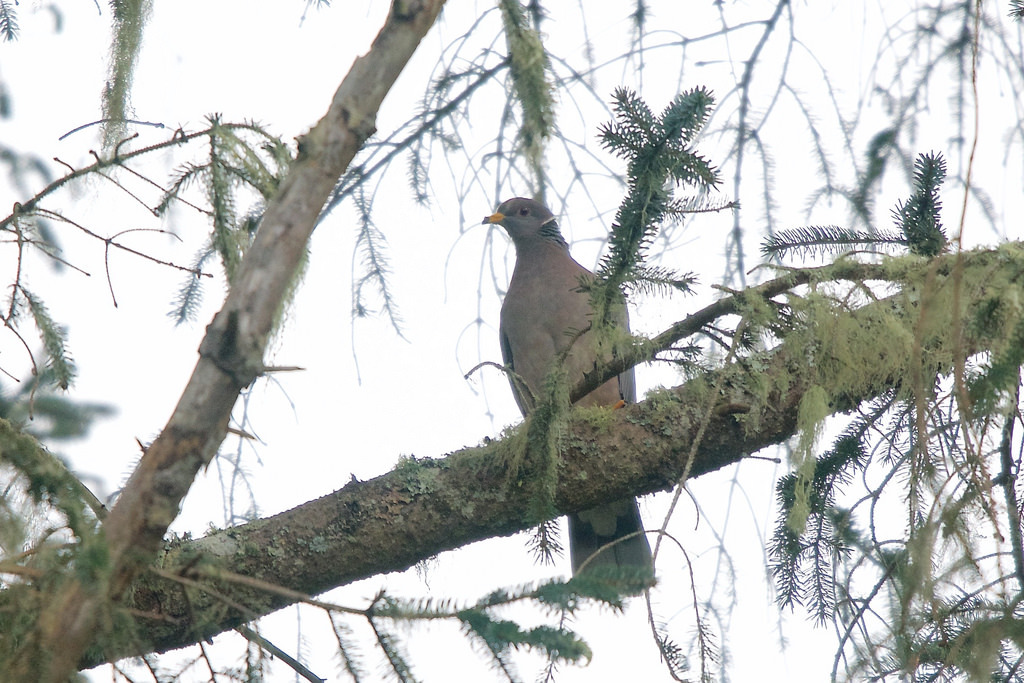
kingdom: Animalia
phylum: Chordata
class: Aves
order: Columbiformes
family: Columbidae
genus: Patagioenas
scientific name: Patagioenas fasciata
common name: Band-tailed pigeon
